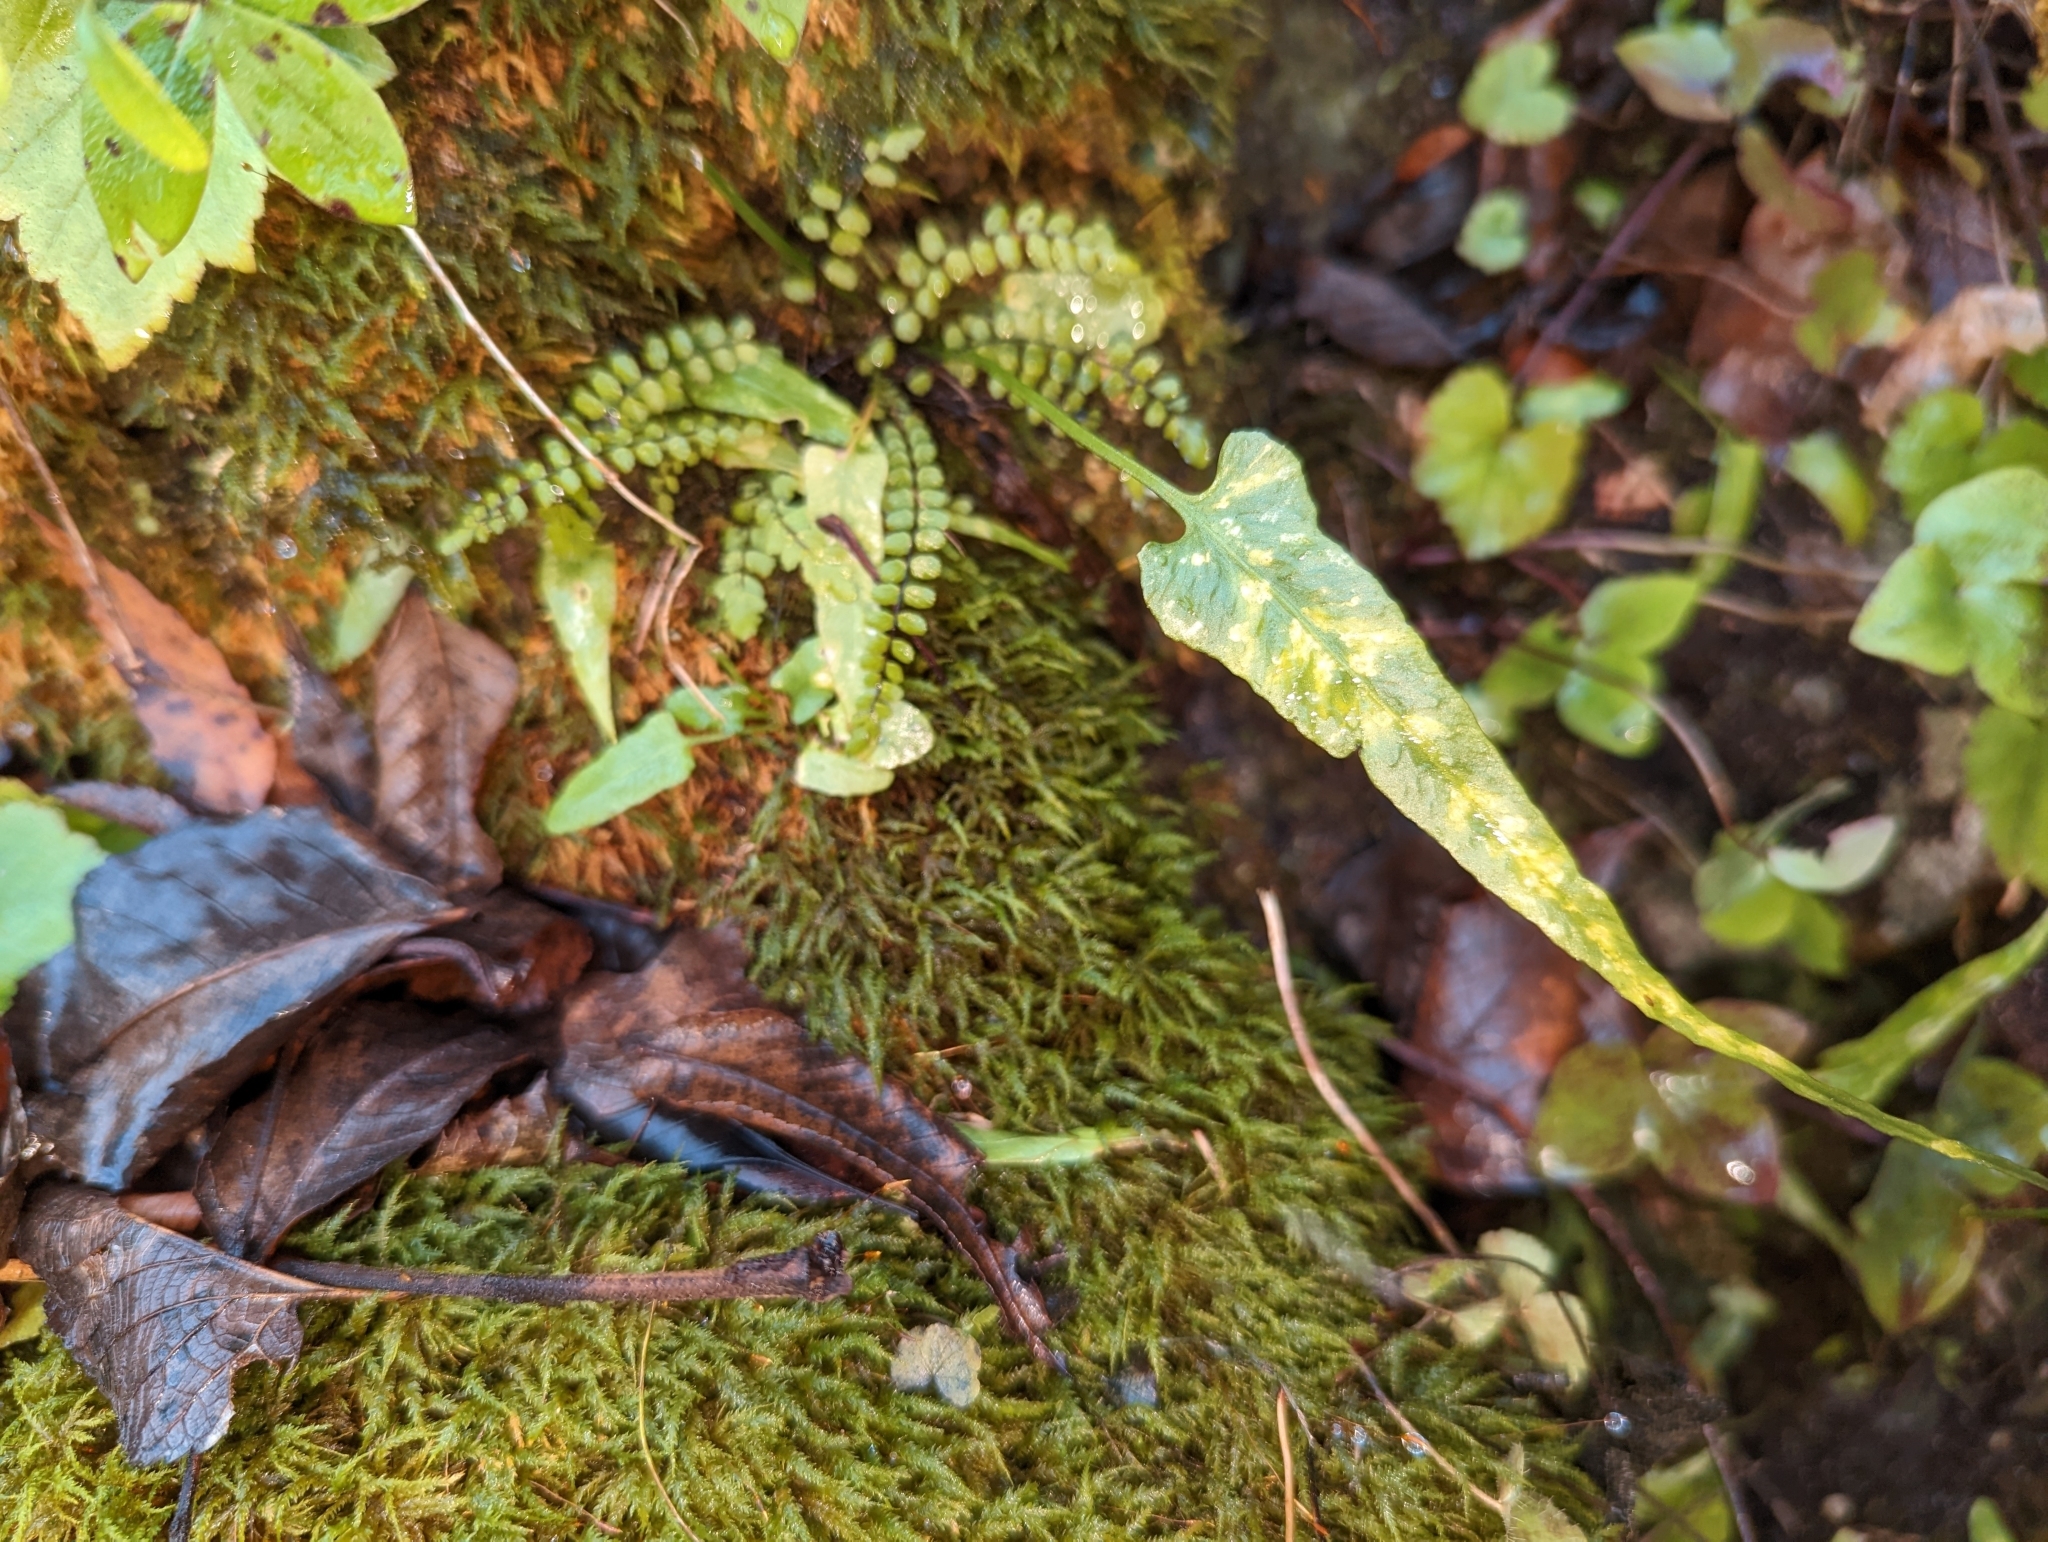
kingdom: Plantae
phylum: Tracheophyta
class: Polypodiopsida
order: Polypodiales
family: Aspleniaceae
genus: Asplenium
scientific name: Asplenium trichomanes
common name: Maidenhair spleenwort
